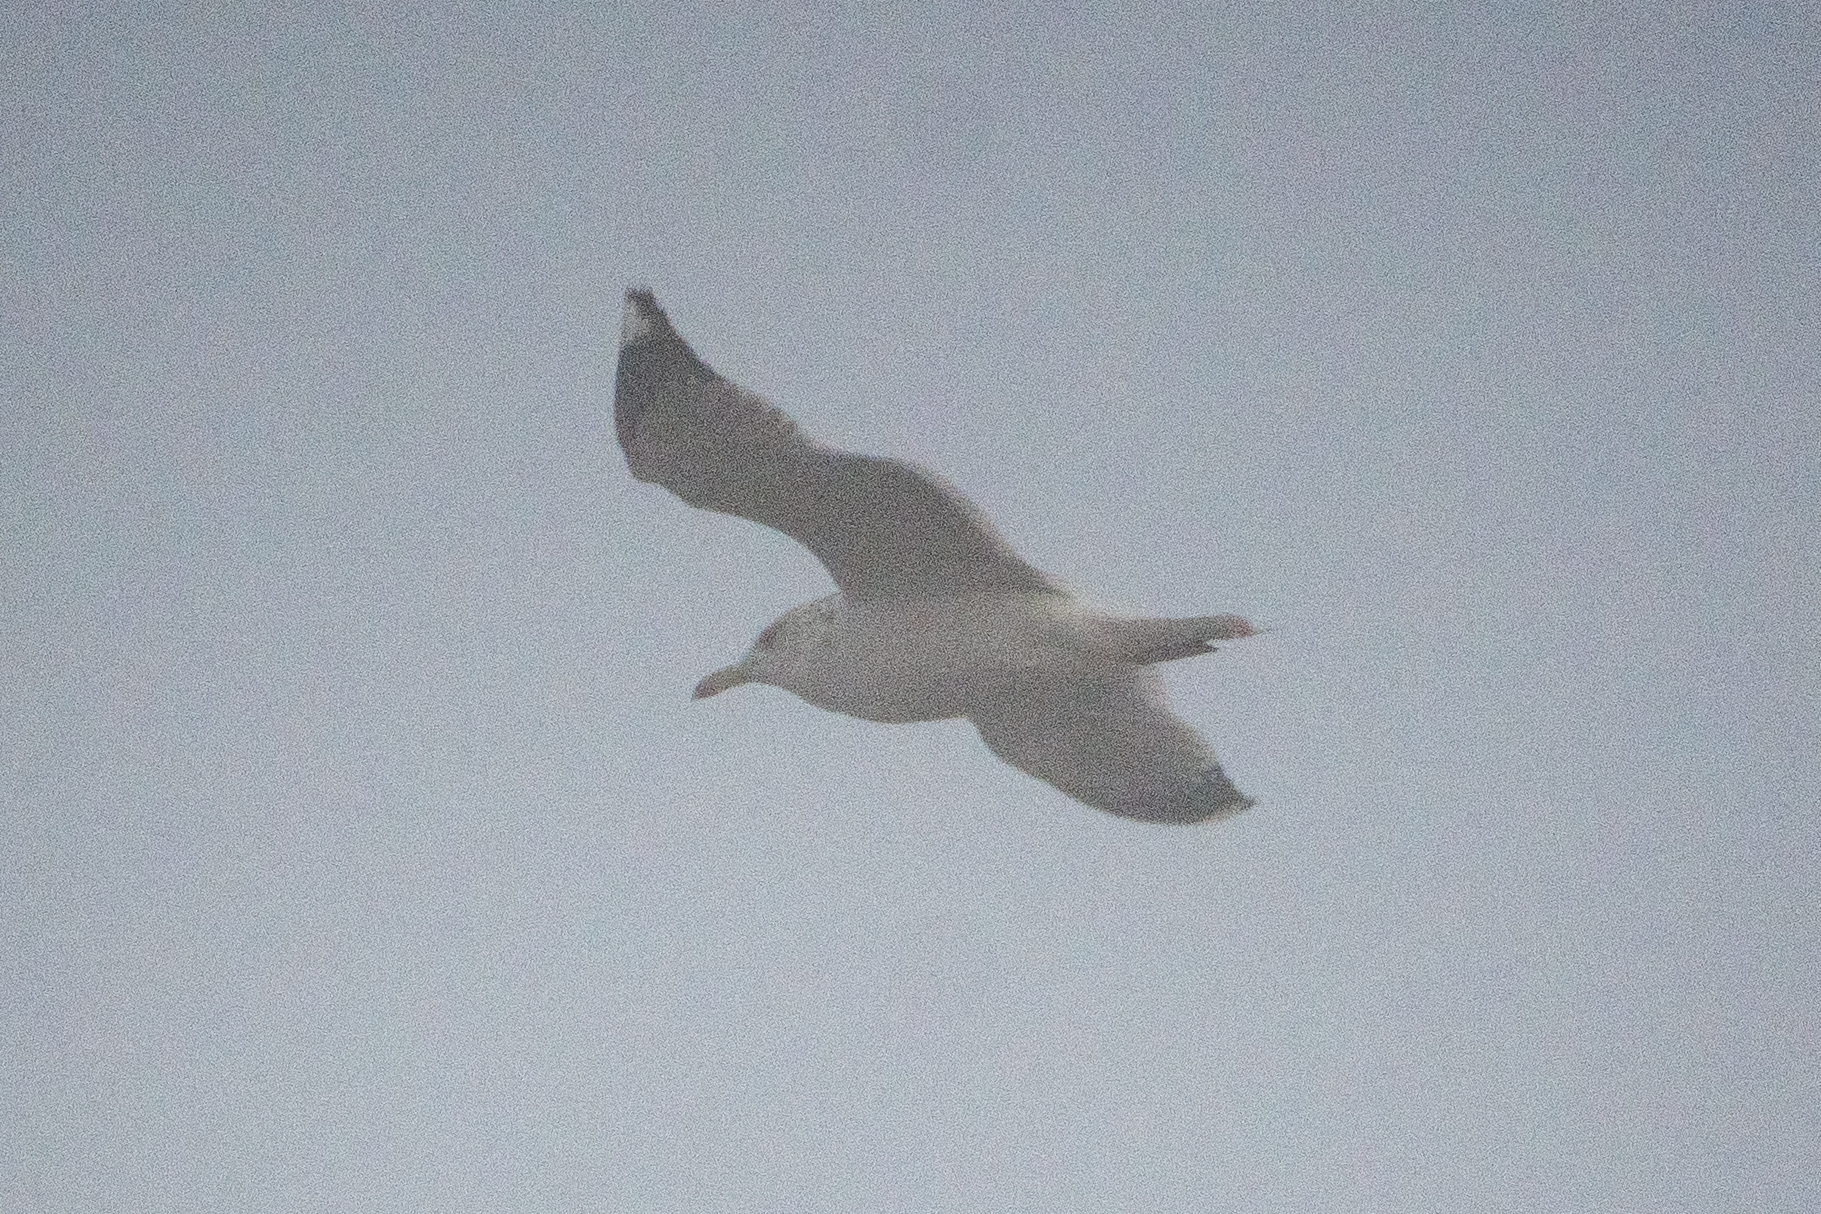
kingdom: Animalia
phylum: Chordata
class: Aves
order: Charadriiformes
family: Laridae
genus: Larus
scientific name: Larus californicus
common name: California gull
